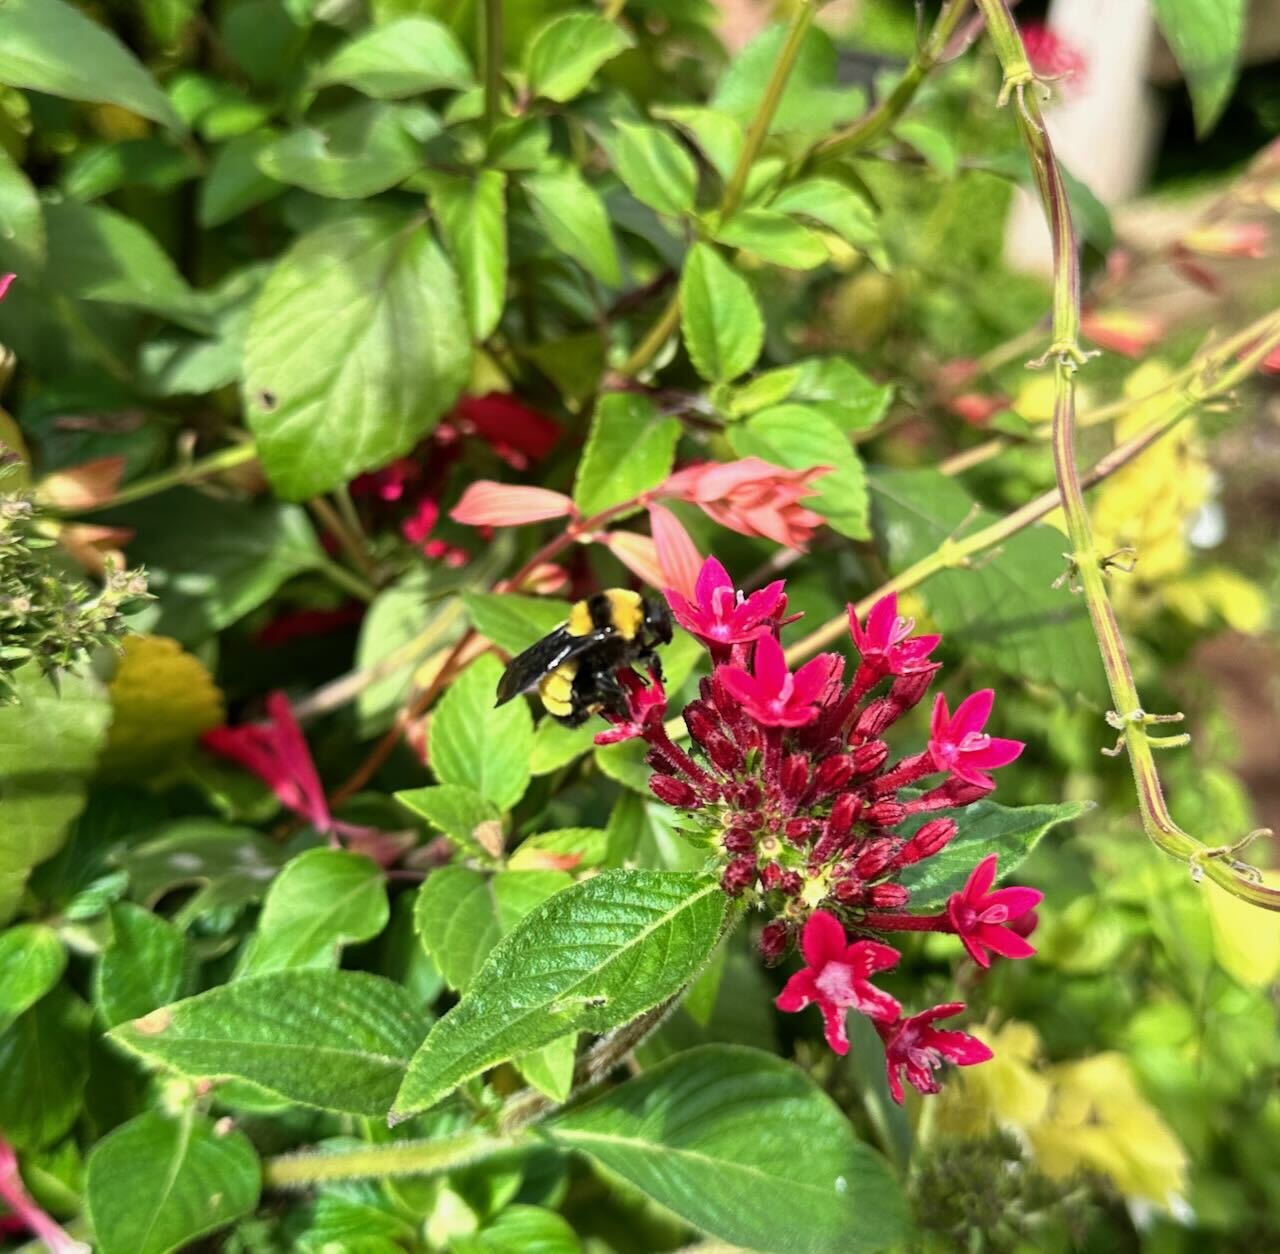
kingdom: Animalia
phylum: Arthropoda
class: Insecta
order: Hymenoptera
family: Apidae
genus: Bombus
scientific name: Bombus sonorus
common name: Sonoran bumble bee
